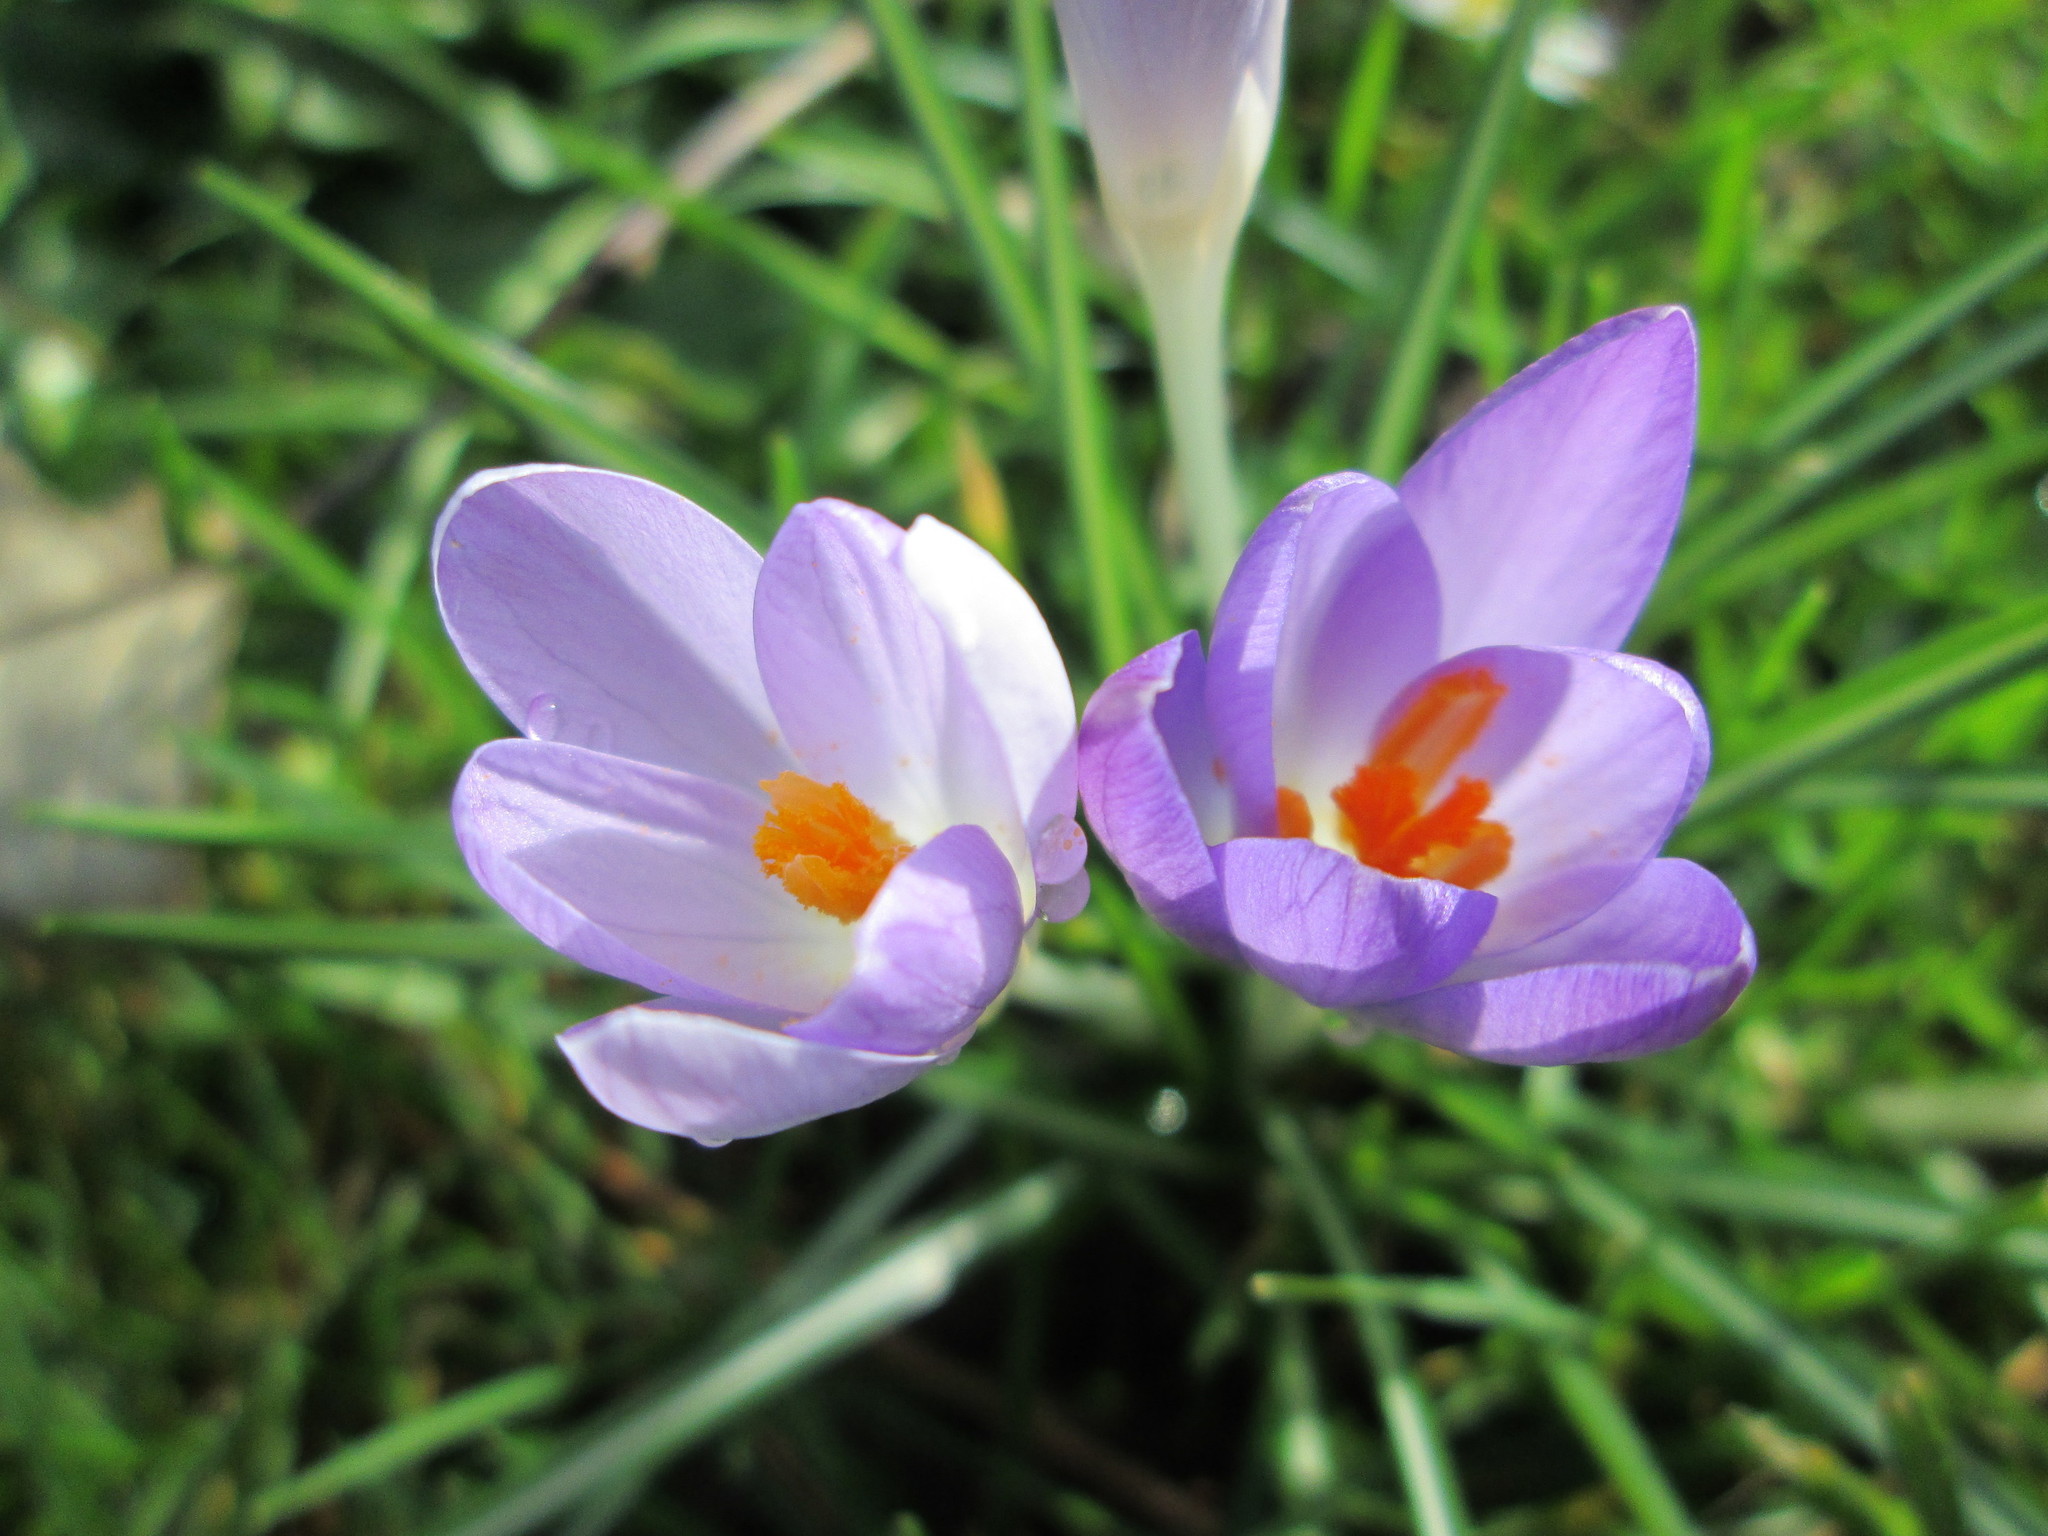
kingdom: Plantae
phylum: Tracheophyta
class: Liliopsida
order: Asparagales
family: Iridaceae
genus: Crocus
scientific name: Crocus tommasinianus
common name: Early crocus
